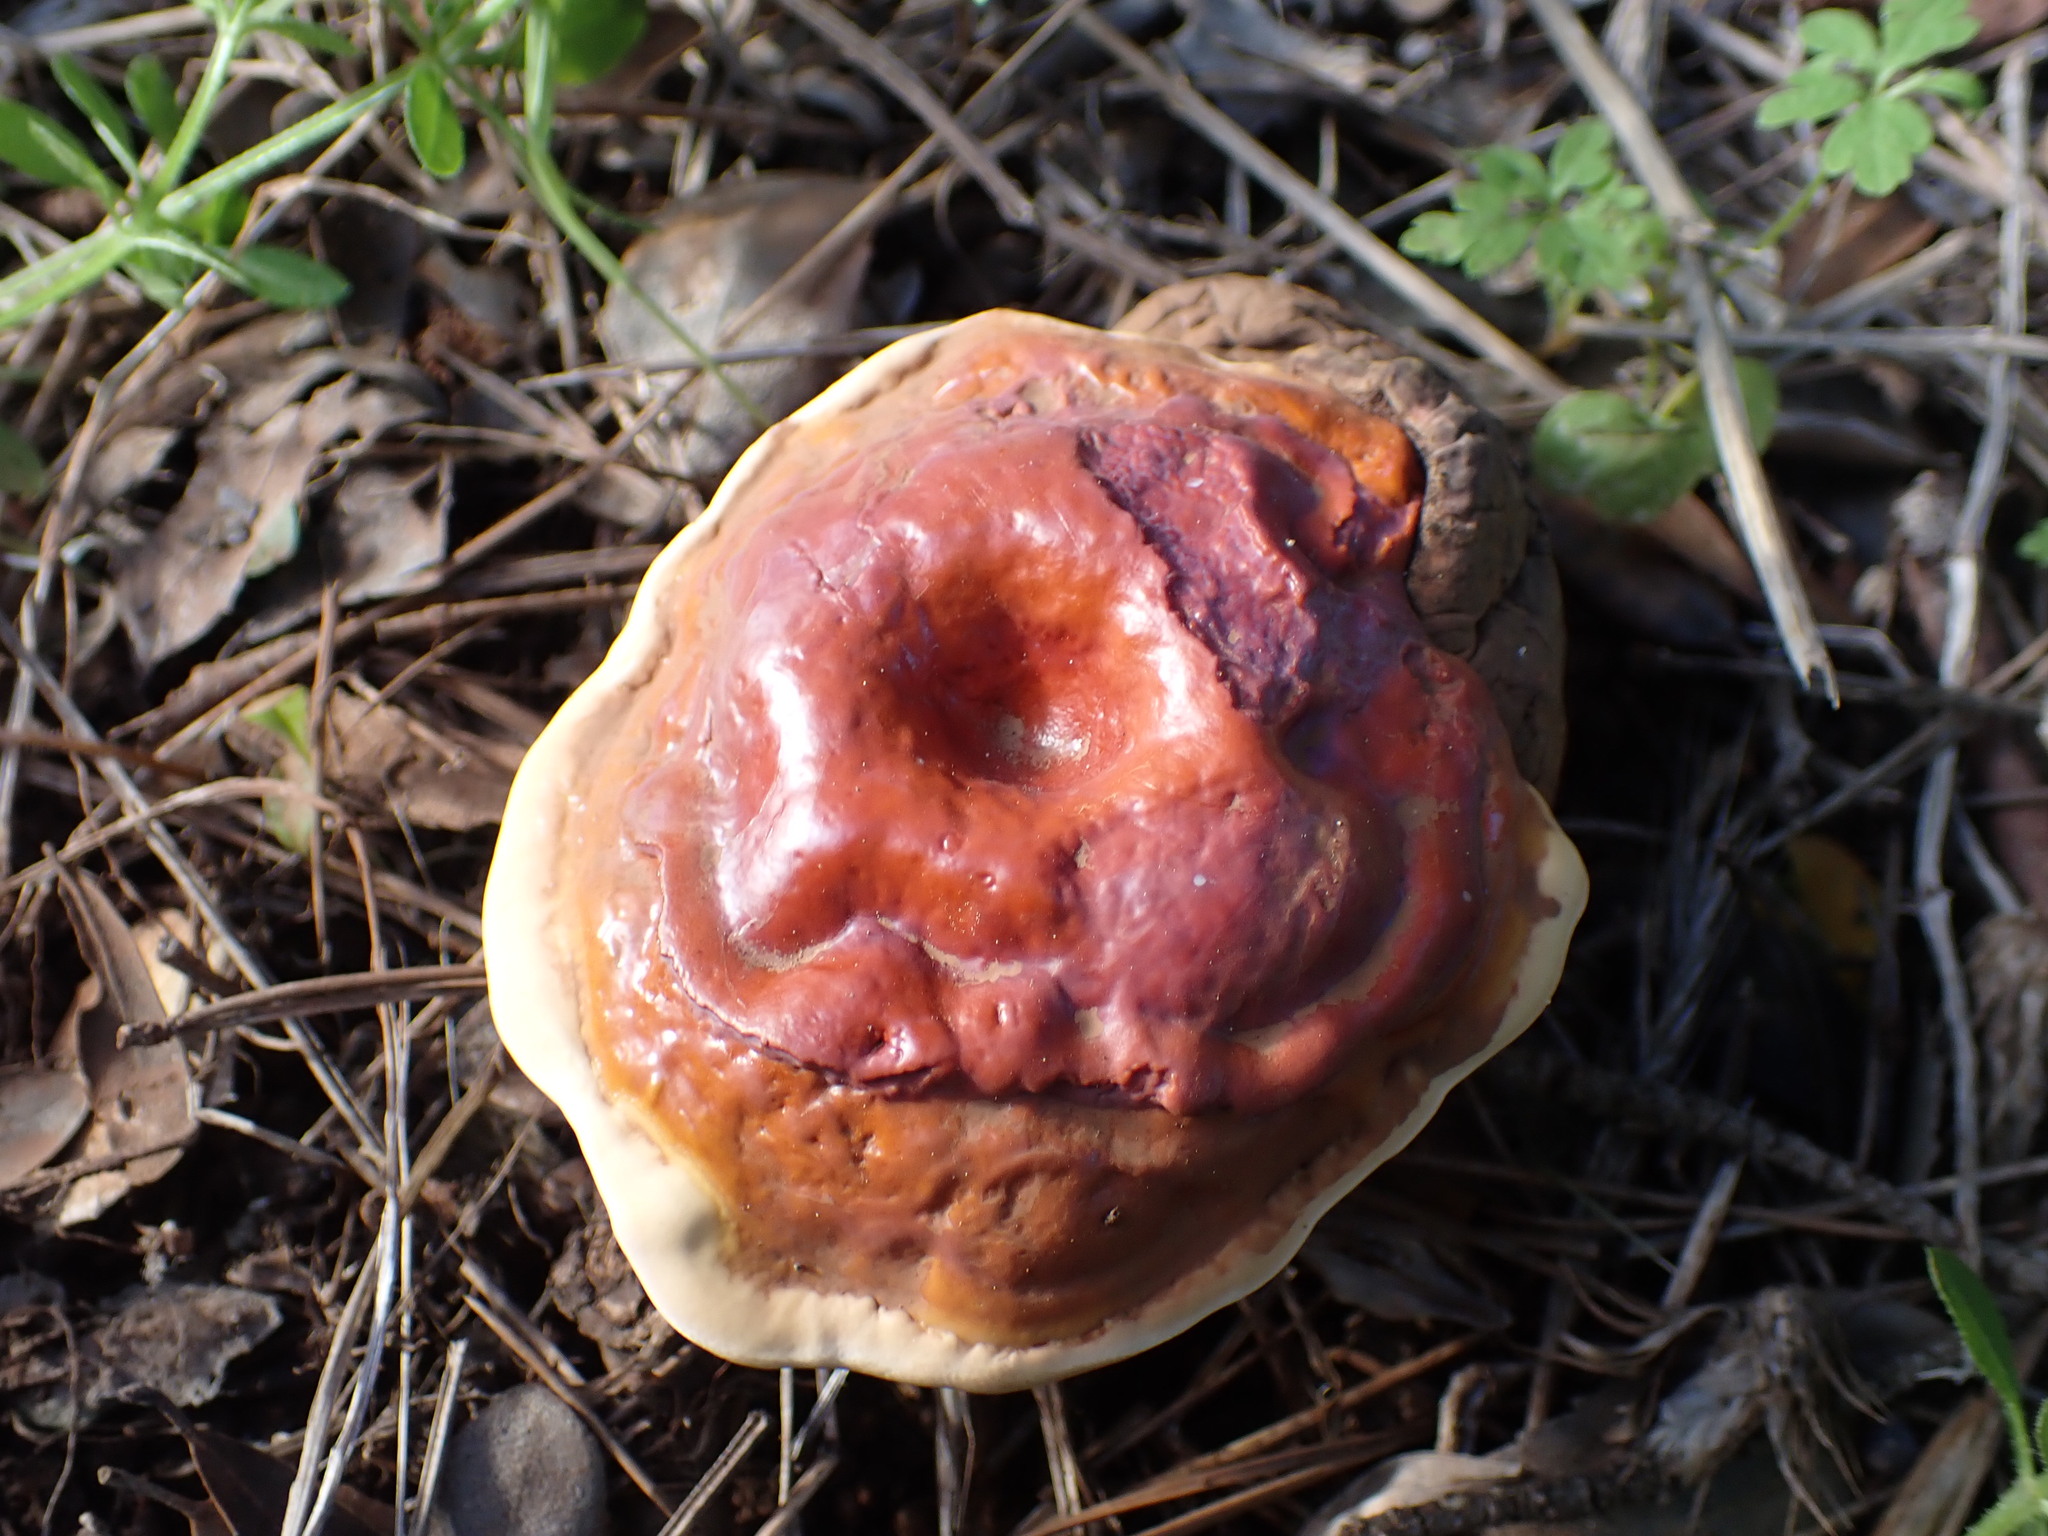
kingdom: Fungi
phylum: Basidiomycota
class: Agaricomycetes
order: Polyporales
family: Polyporaceae
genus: Ganoderma
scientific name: Ganoderma lucidum
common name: Lacquered bracket
